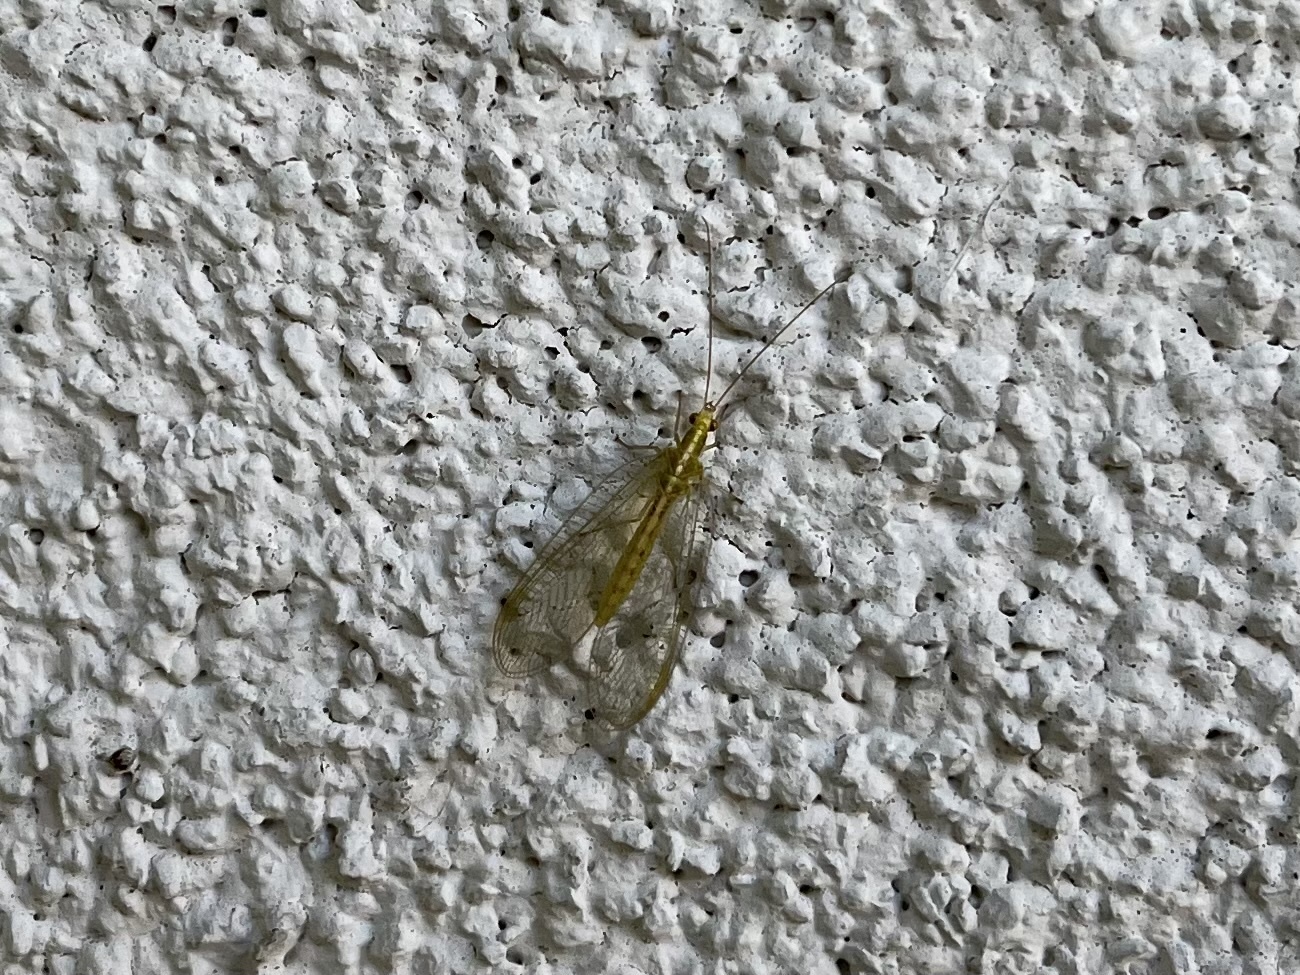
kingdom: Animalia
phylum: Arthropoda
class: Insecta
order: Neuroptera
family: Chrysopidae
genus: Chrysoperla
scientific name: Chrysoperla
